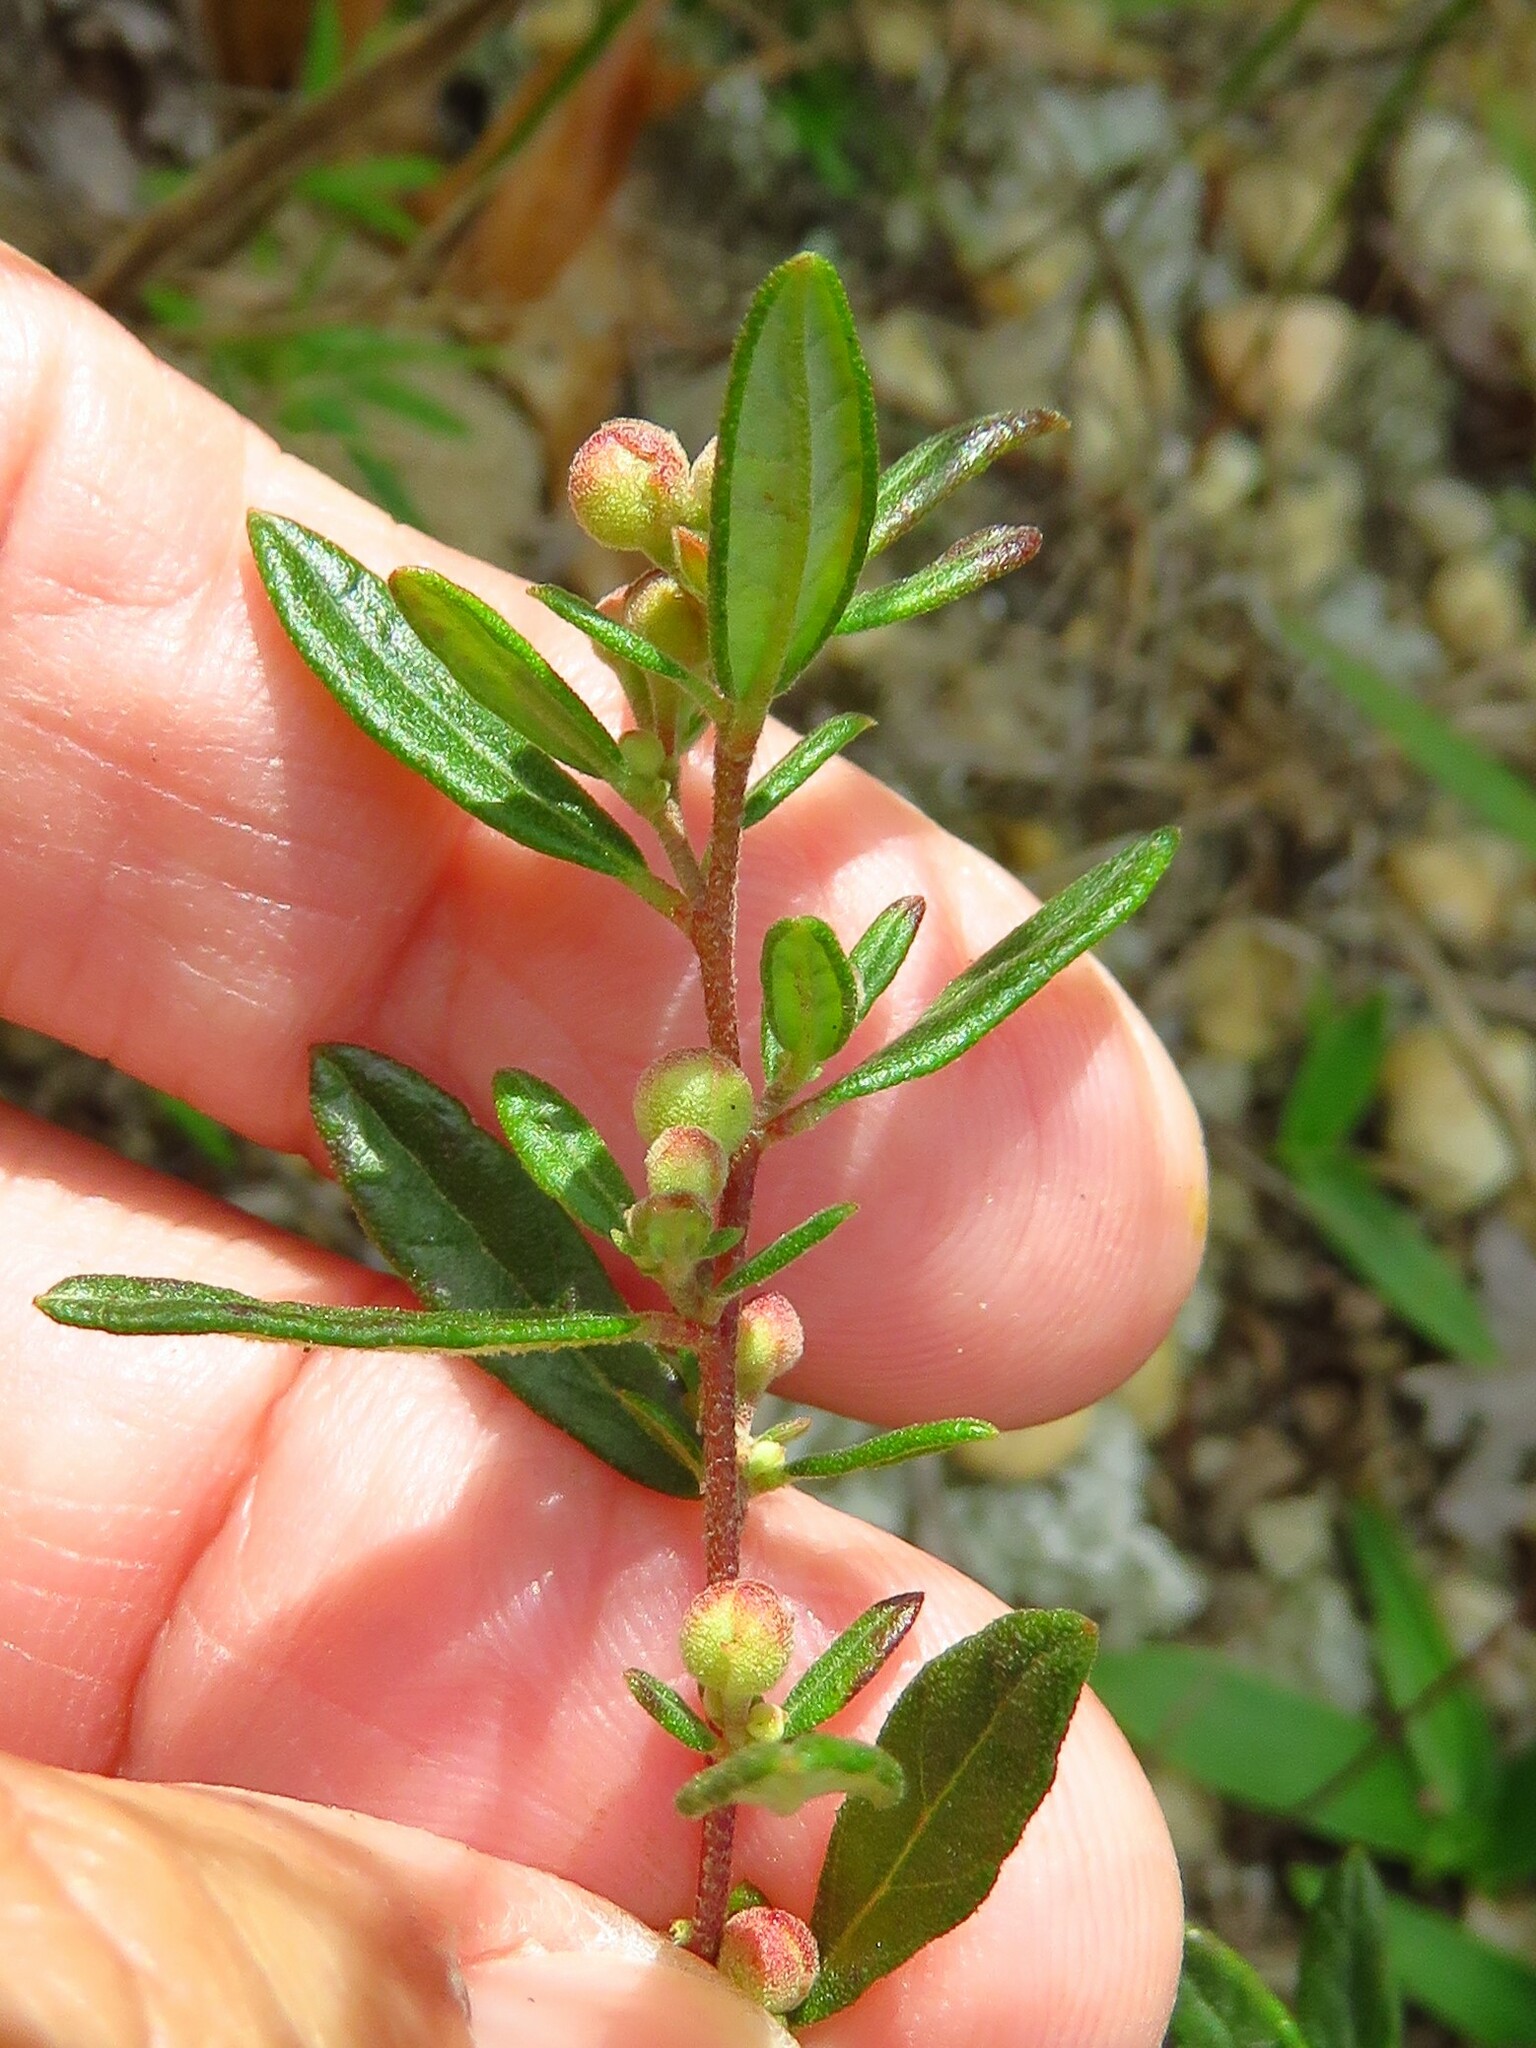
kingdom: Plantae
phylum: Tracheophyta
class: Magnoliopsida
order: Malvales
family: Cistaceae
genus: Crocanthemum
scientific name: Crocanthemum canadense
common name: Canada frostweed
